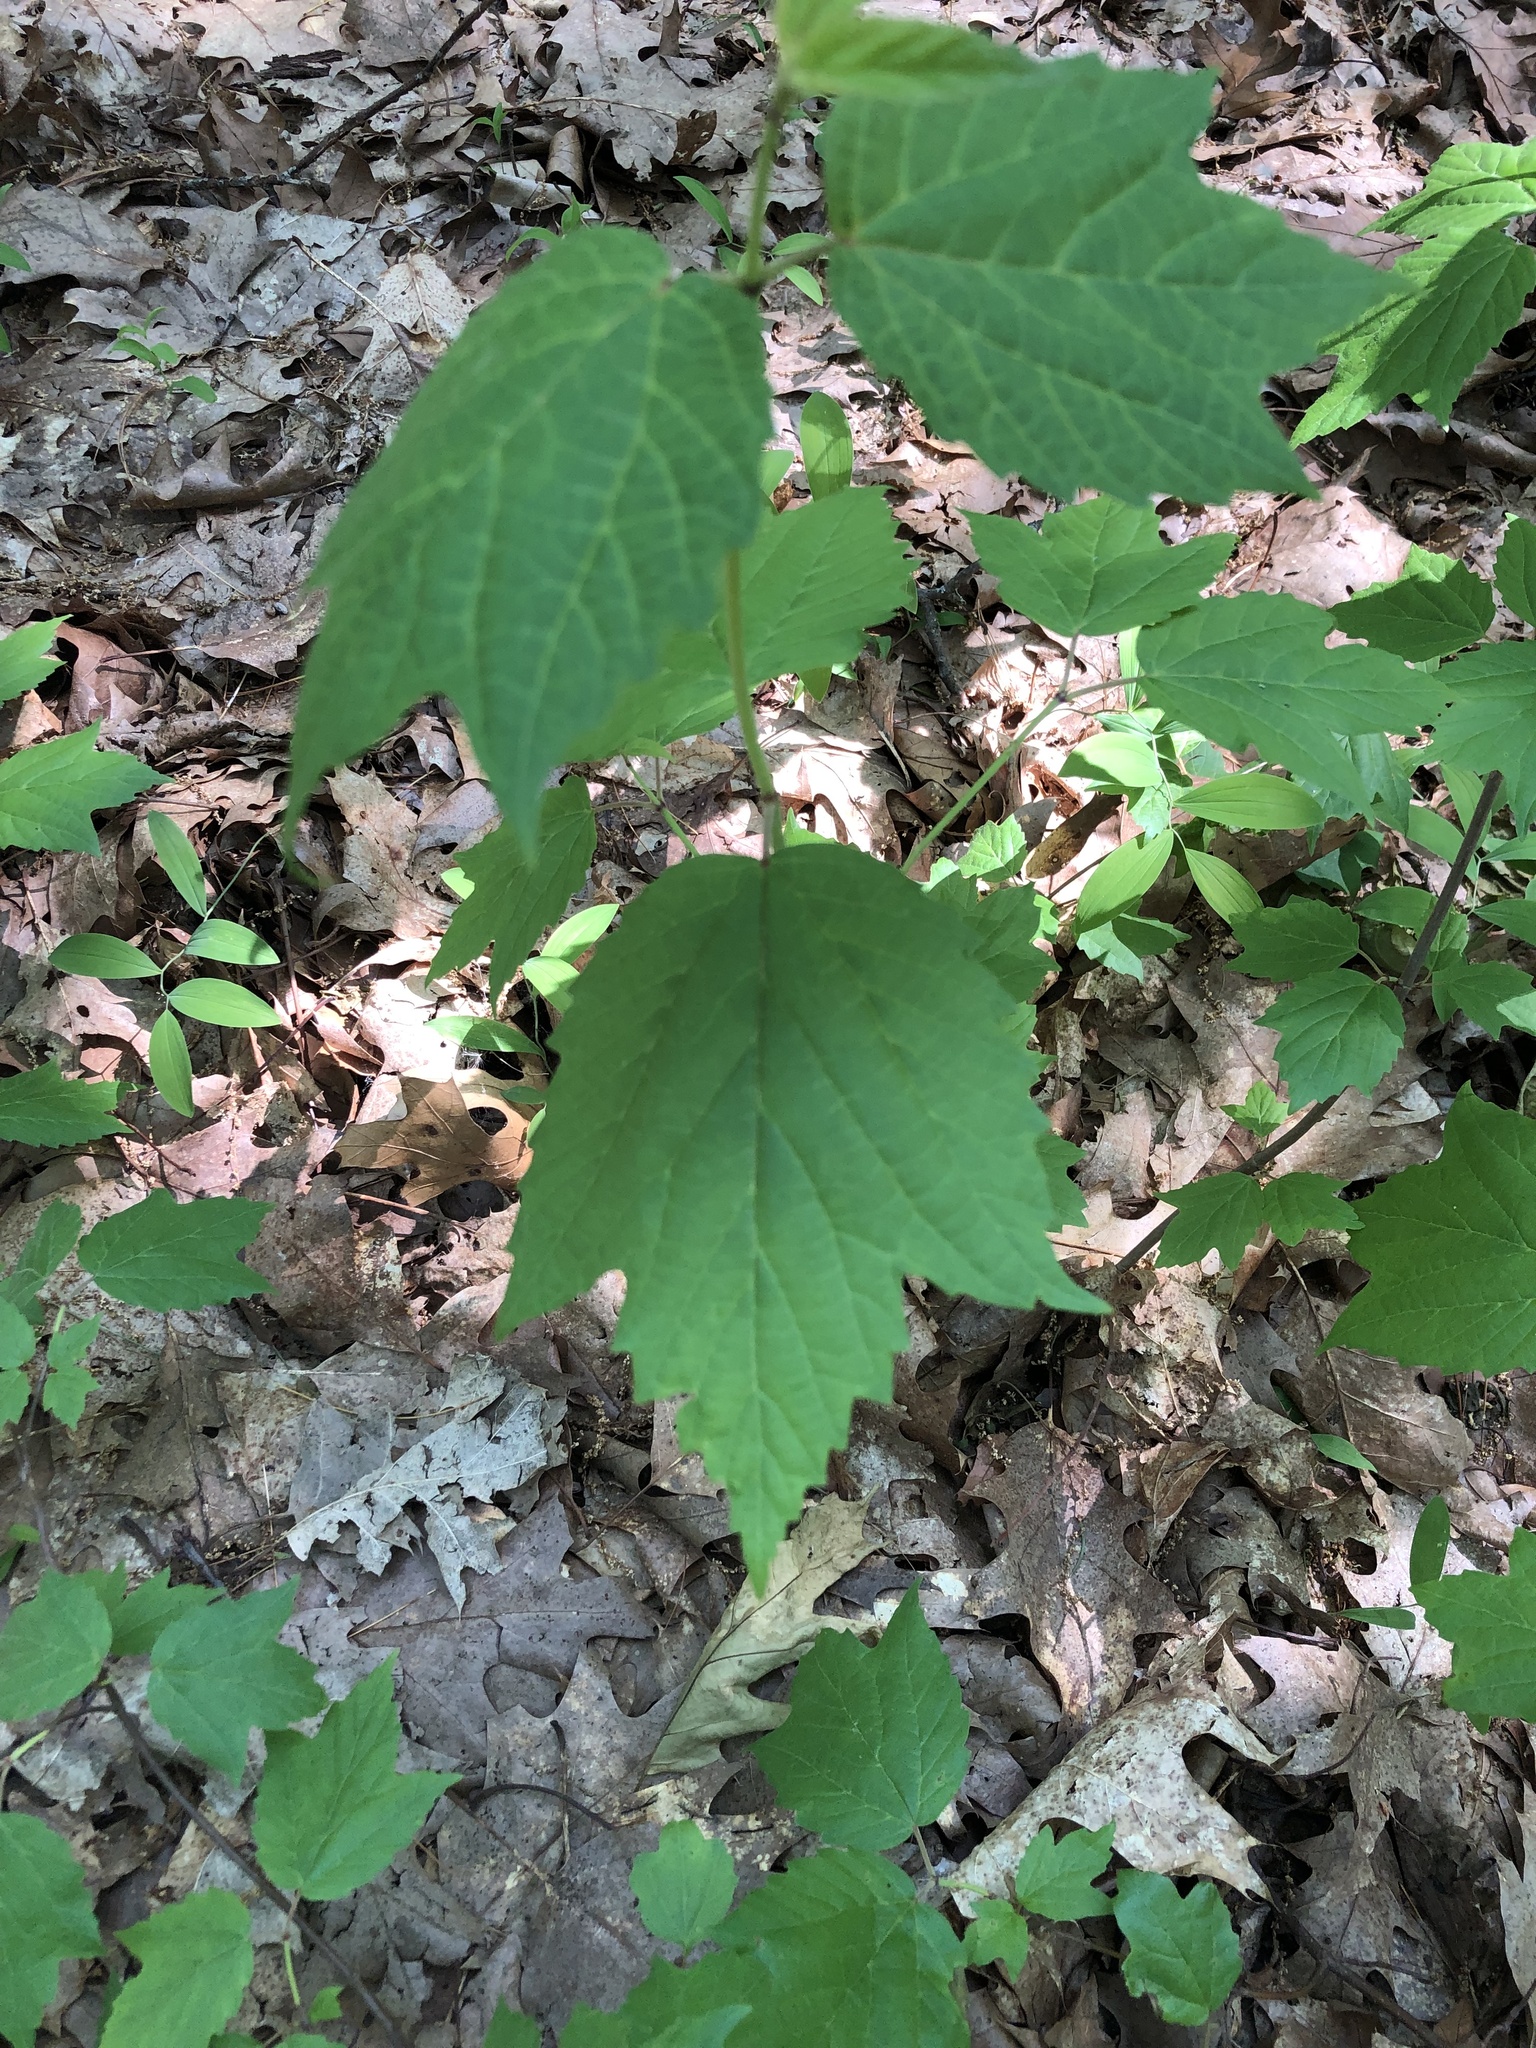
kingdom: Plantae
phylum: Tracheophyta
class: Magnoliopsida
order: Dipsacales
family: Viburnaceae
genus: Viburnum
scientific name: Viburnum acerifolium
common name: Dockmackie
